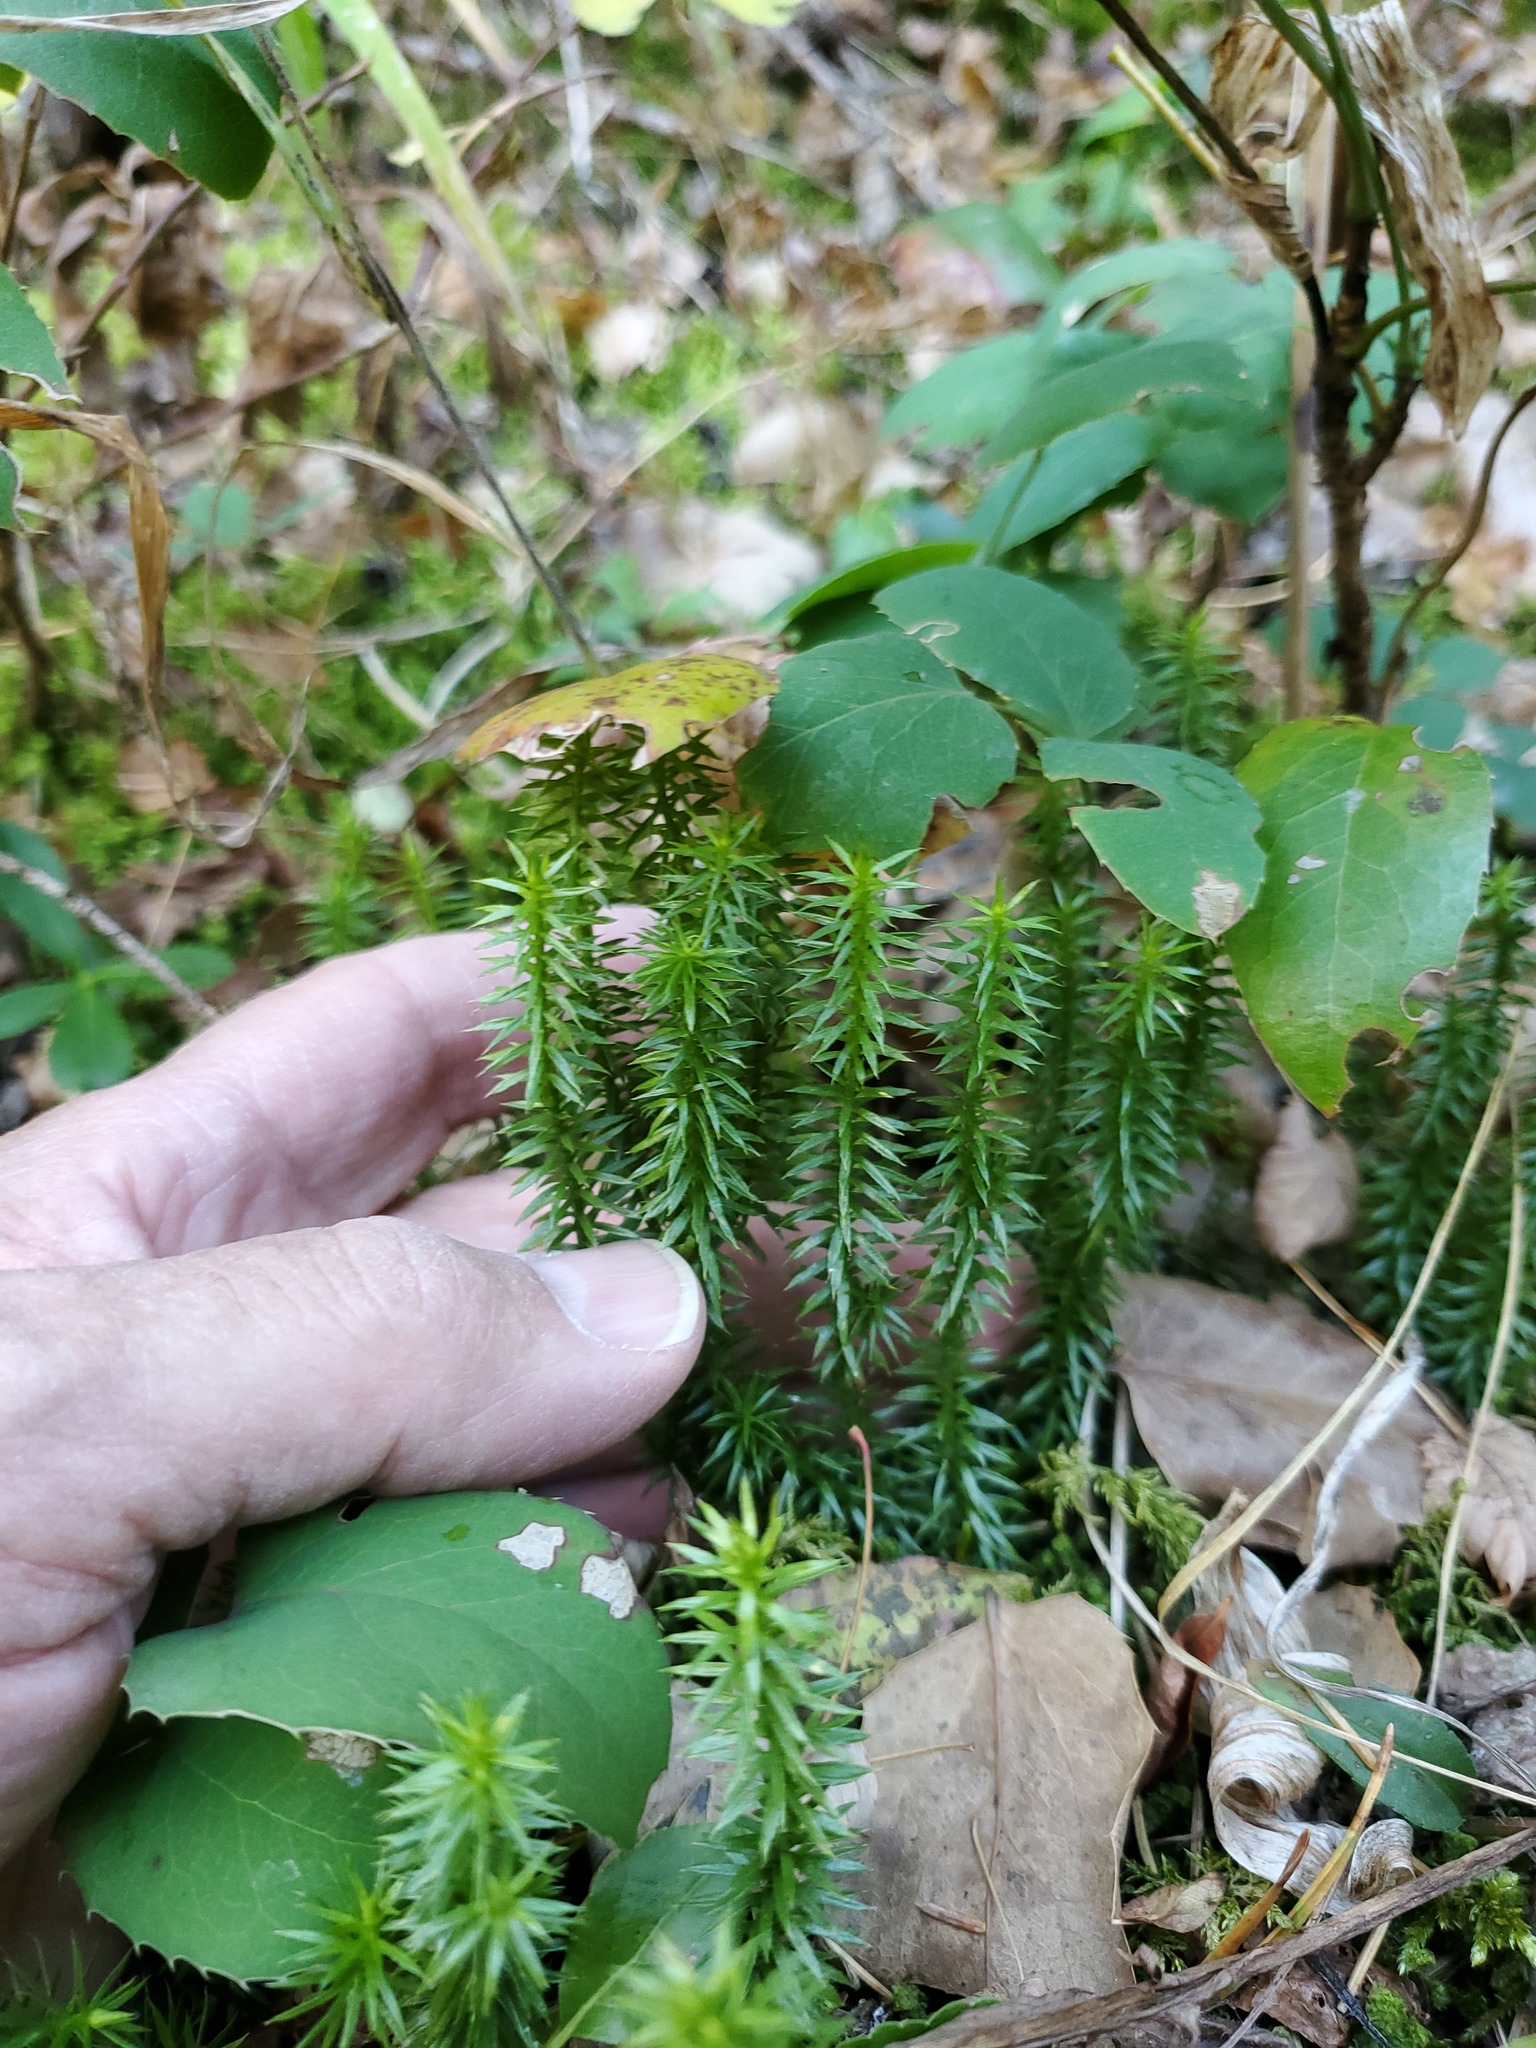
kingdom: Plantae
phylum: Tracheophyta
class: Lycopodiopsida
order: Lycopodiales
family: Lycopodiaceae
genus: Spinulum
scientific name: Spinulum annotinum
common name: Interrupted club-moss
